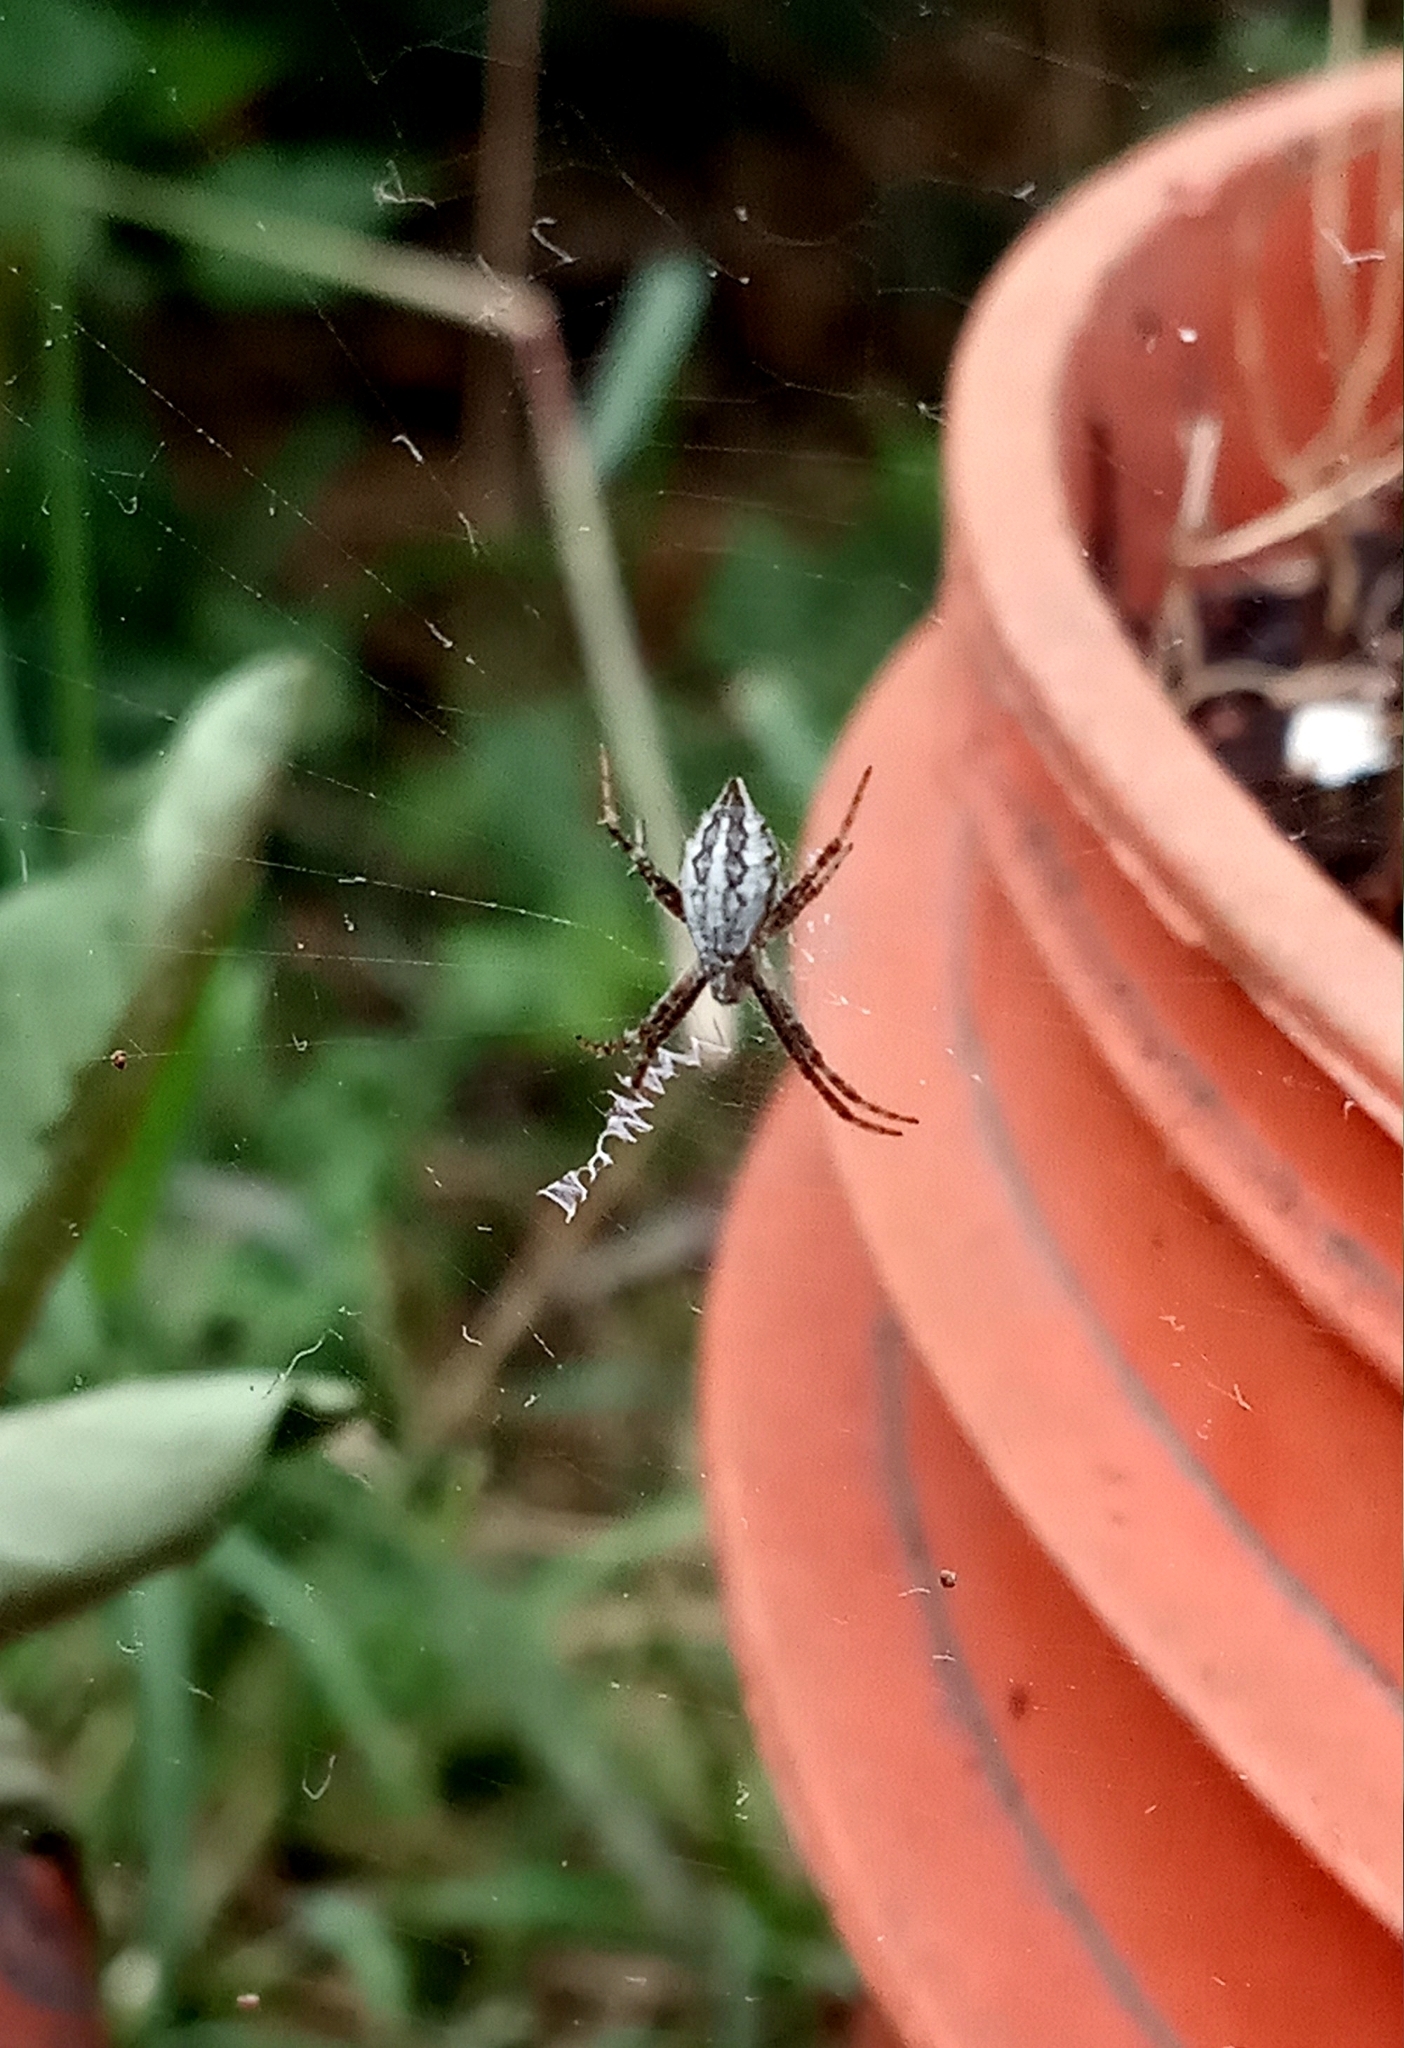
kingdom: Animalia
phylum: Arthropoda
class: Arachnida
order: Araneae
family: Araneidae
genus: Argiope
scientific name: Argiope argentata
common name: Orb weavers
